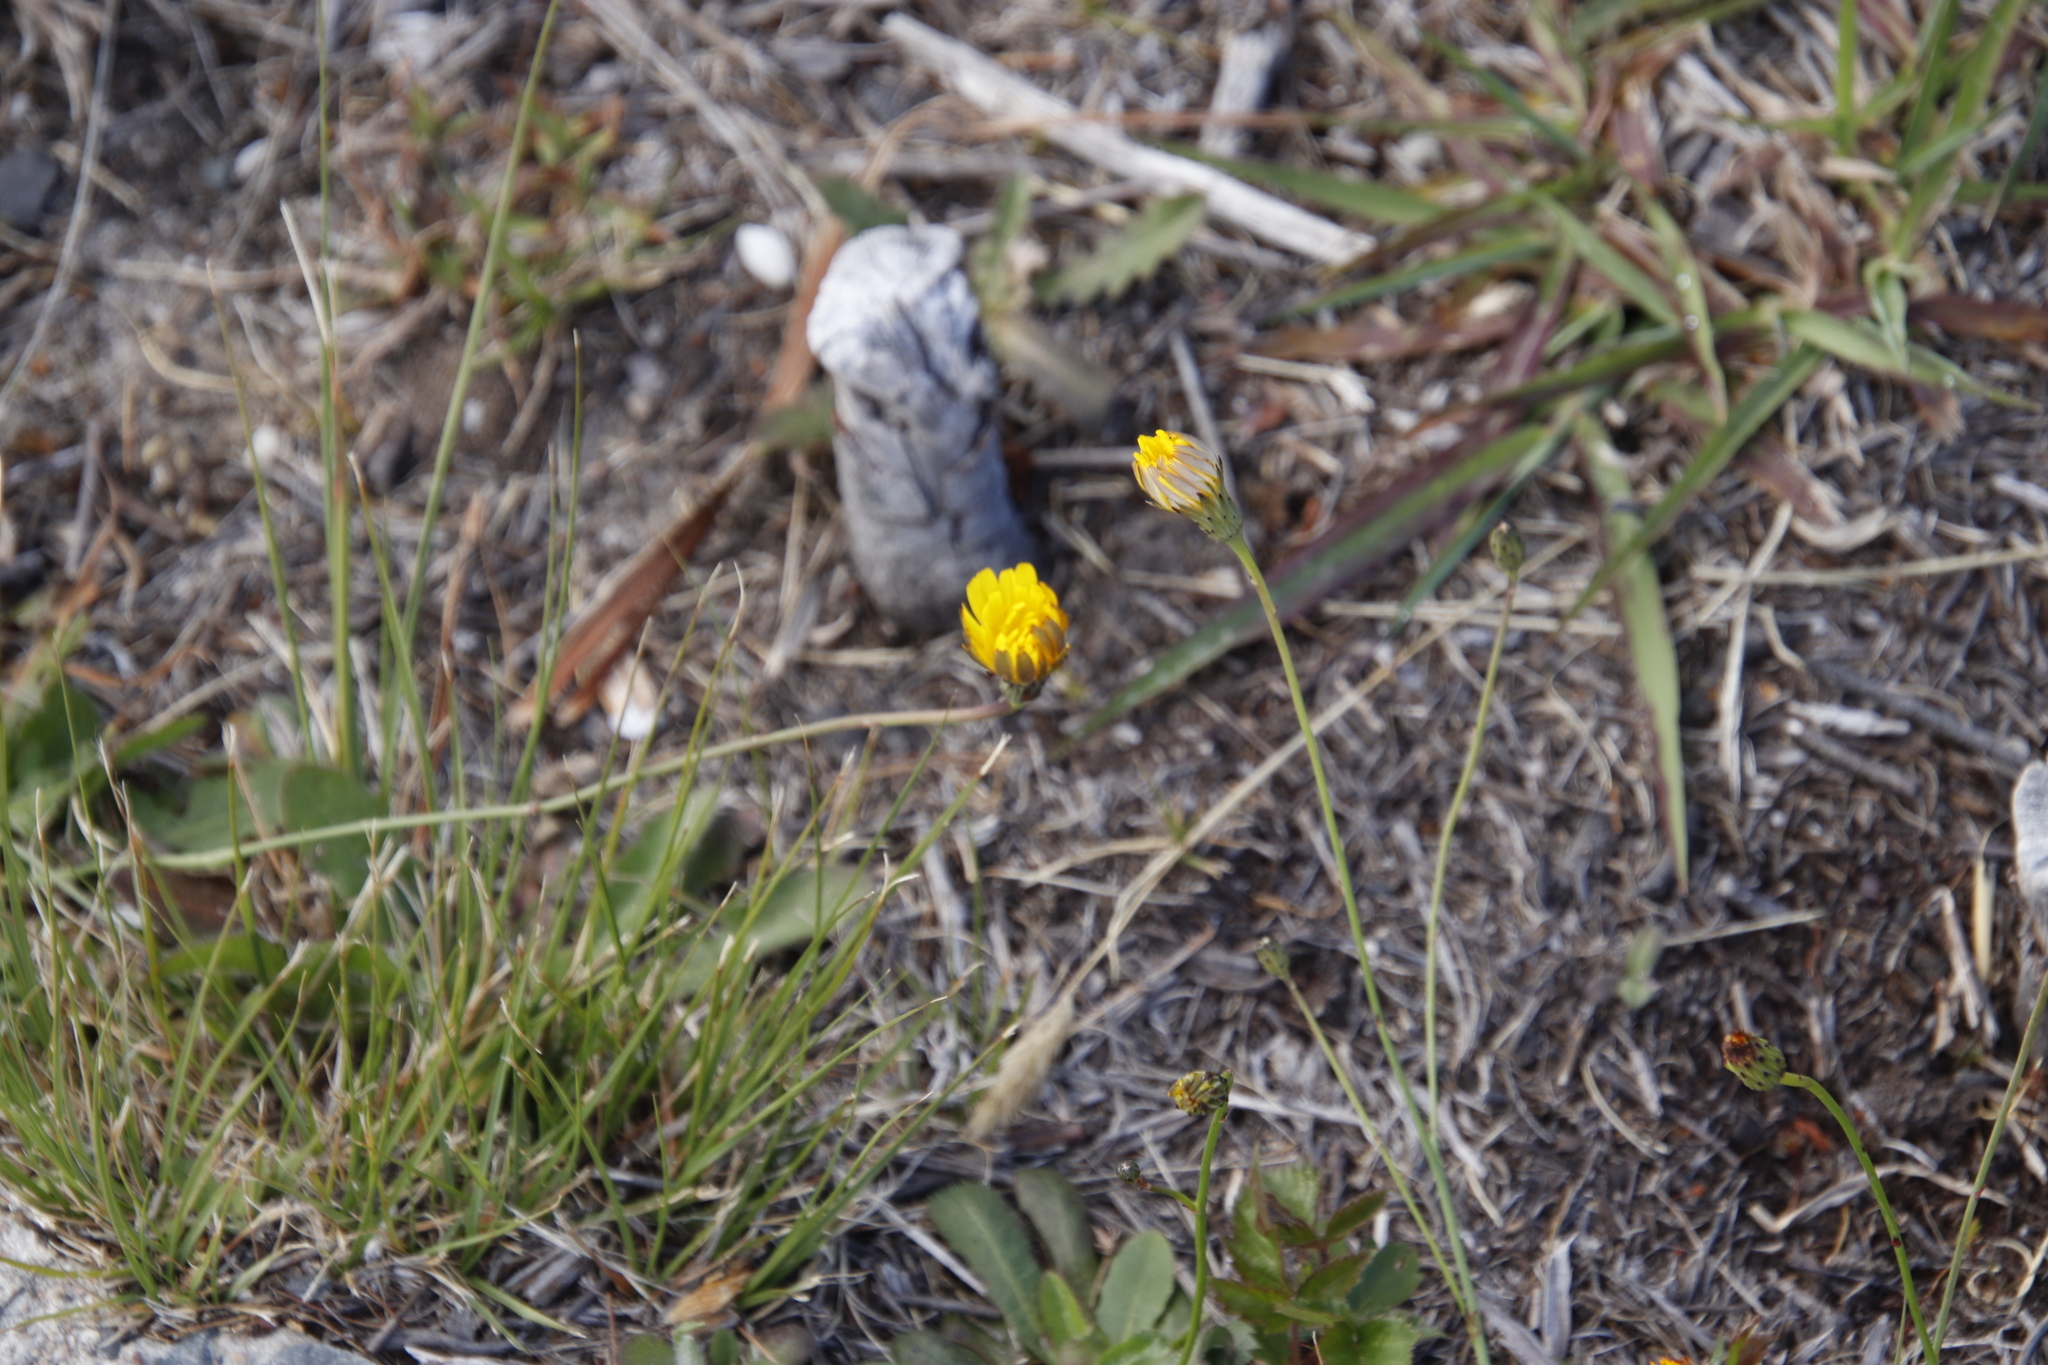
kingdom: Plantae
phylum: Tracheophyta
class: Magnoliopsida
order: Asterales
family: Asteraceae
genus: Hypochaeris
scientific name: Hypochaeris radicata
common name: Flatweed
